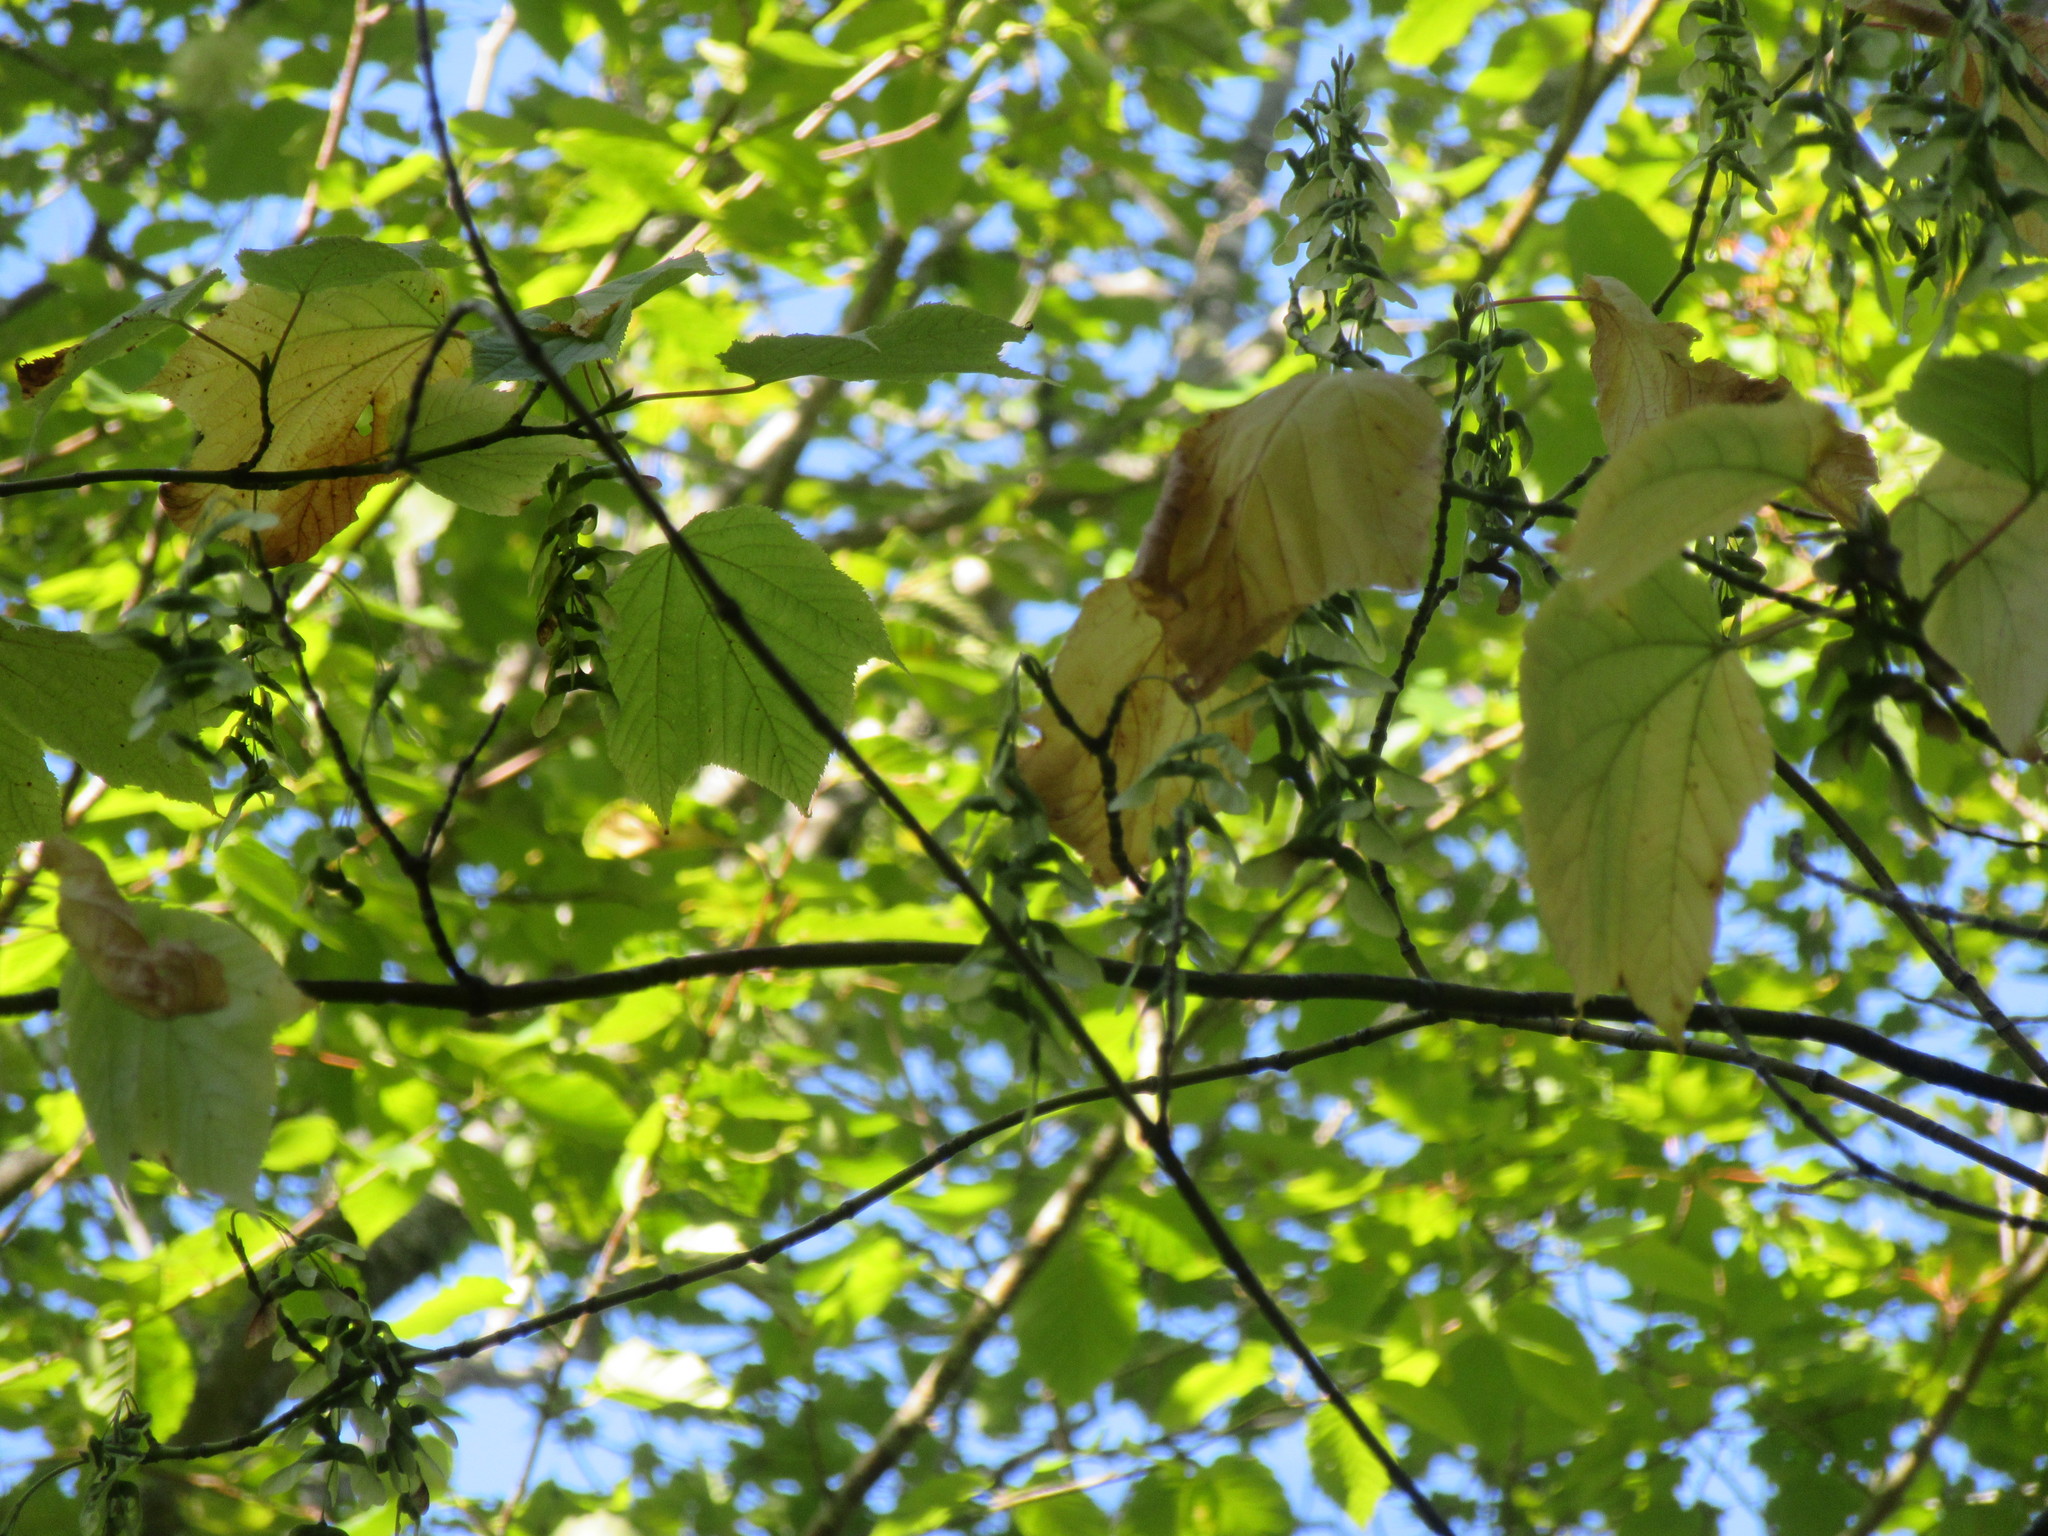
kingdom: Plantae
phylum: Tracheophyta
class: Magnoliopsida
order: Sapindales
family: Sapindaceae
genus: Acer
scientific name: Acer pensylvanicum
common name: Moosewood
